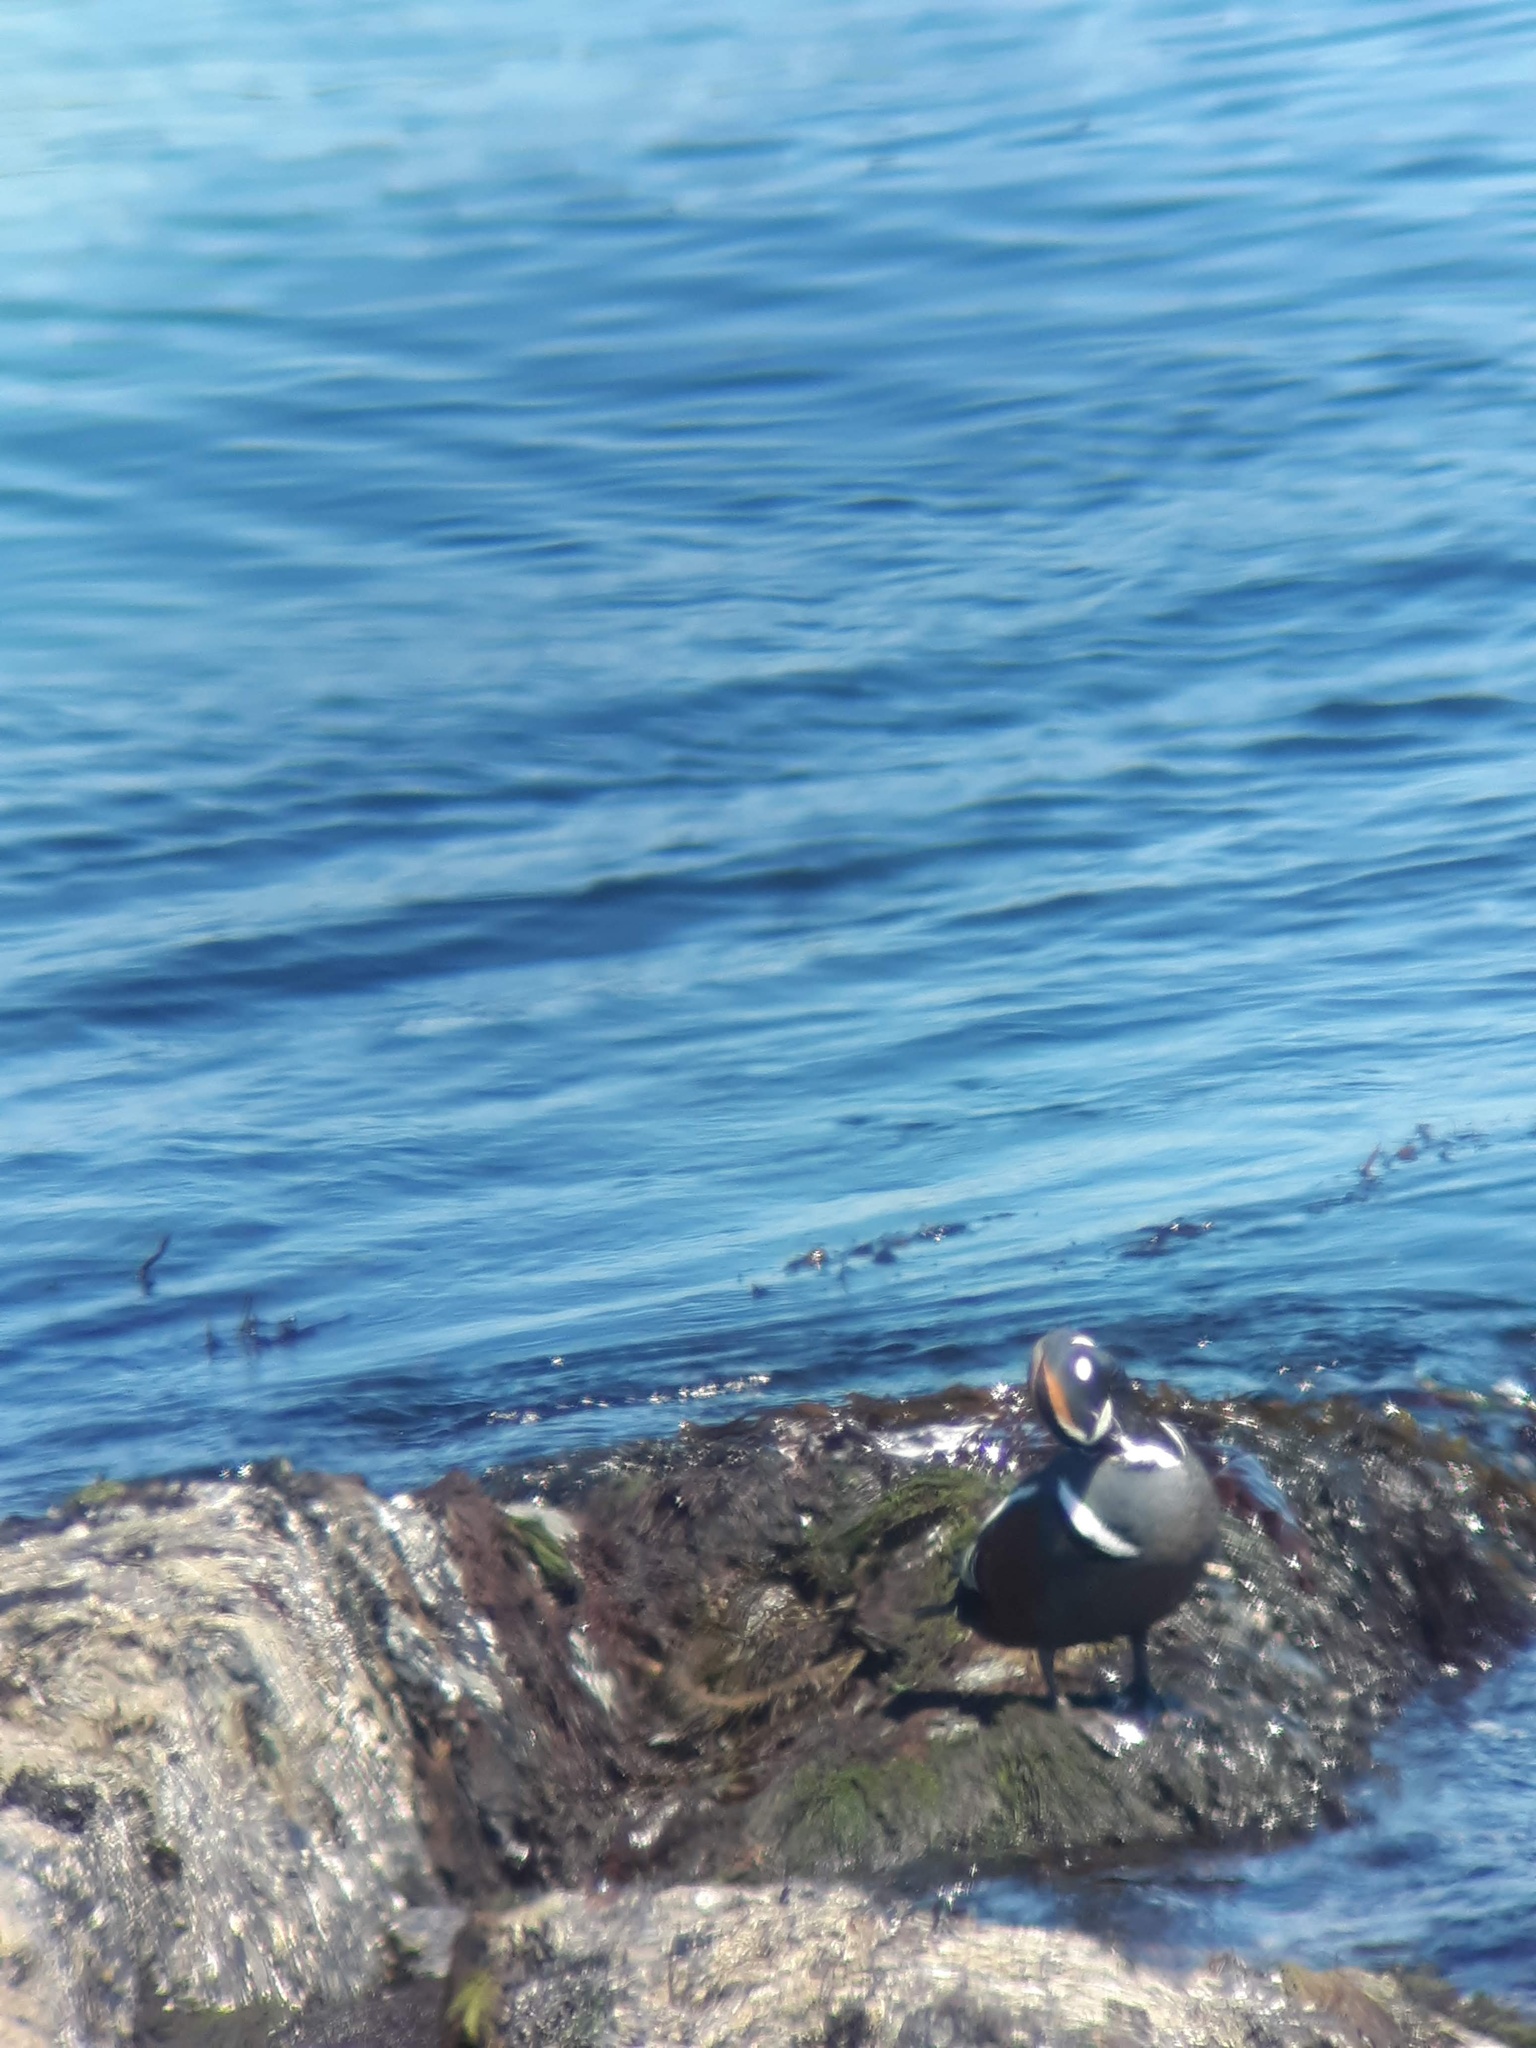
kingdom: Animalia
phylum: Chordata
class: Aves
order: Anseriformes
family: Anatidae
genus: Histrionicus
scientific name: Histrionicus histrionicus
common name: Harlequin duck
